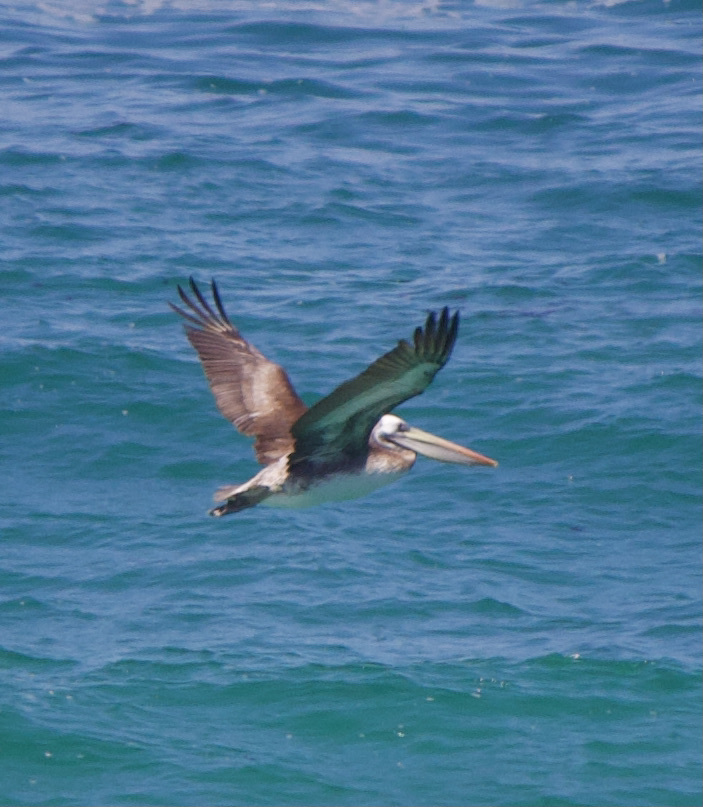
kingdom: Animalia
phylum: Chordata
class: Aves
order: Pelecaniformes
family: Pelecanidae
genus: Pelecanus
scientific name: Pelecanus thagus
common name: Peruvian pelican
